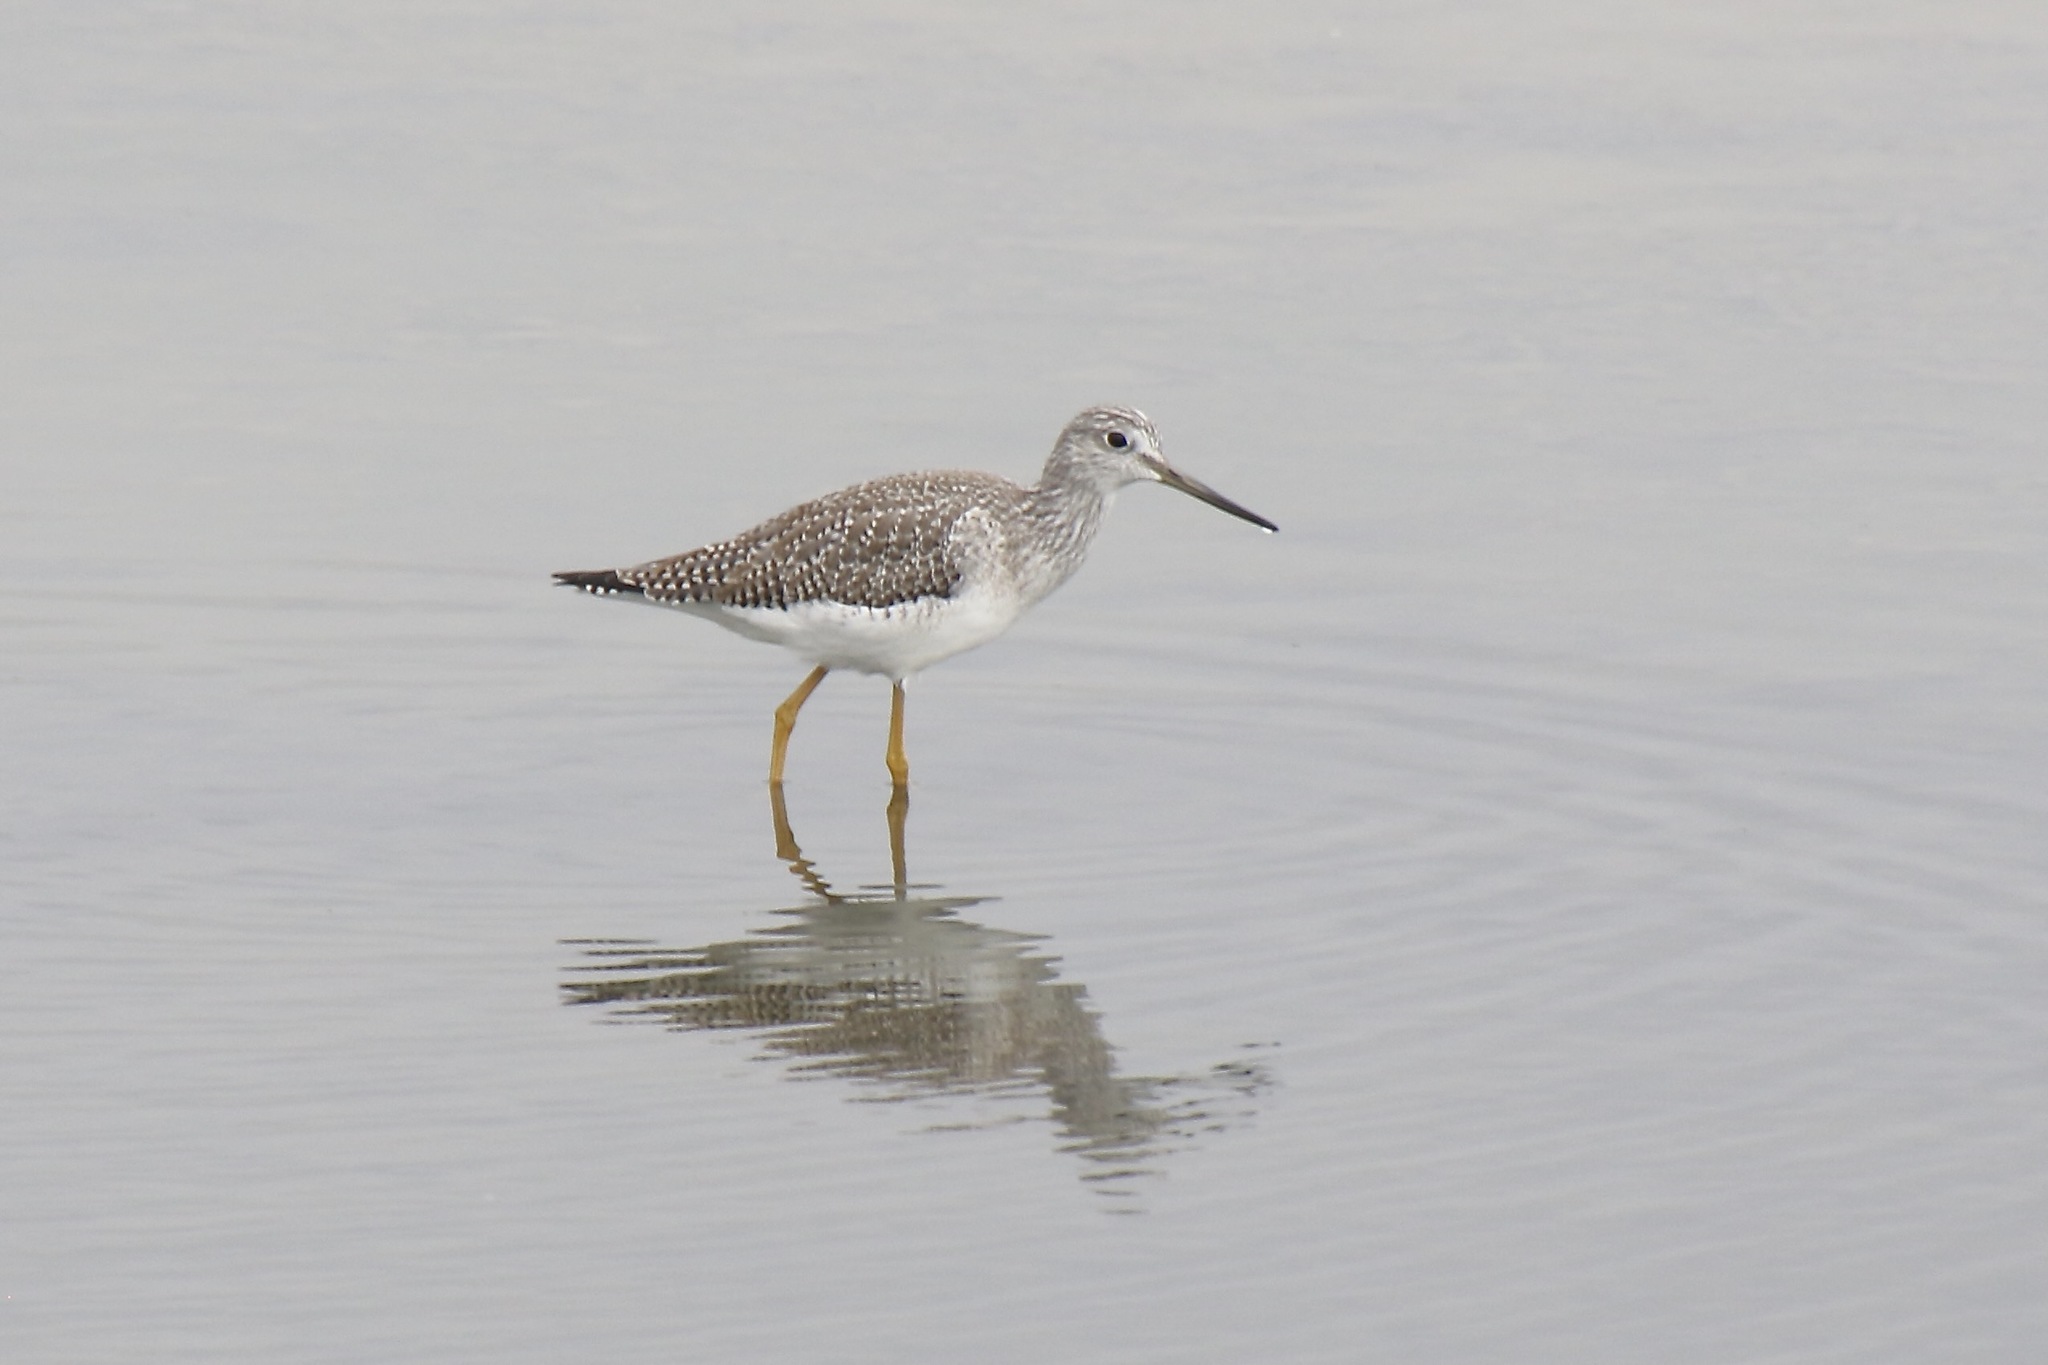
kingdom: Animalia
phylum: Chordata
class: Aves
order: Charadriiformes
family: Scolopacidae
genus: Tringa
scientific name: Tringa melanoleuca
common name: Greater yellowlegs
